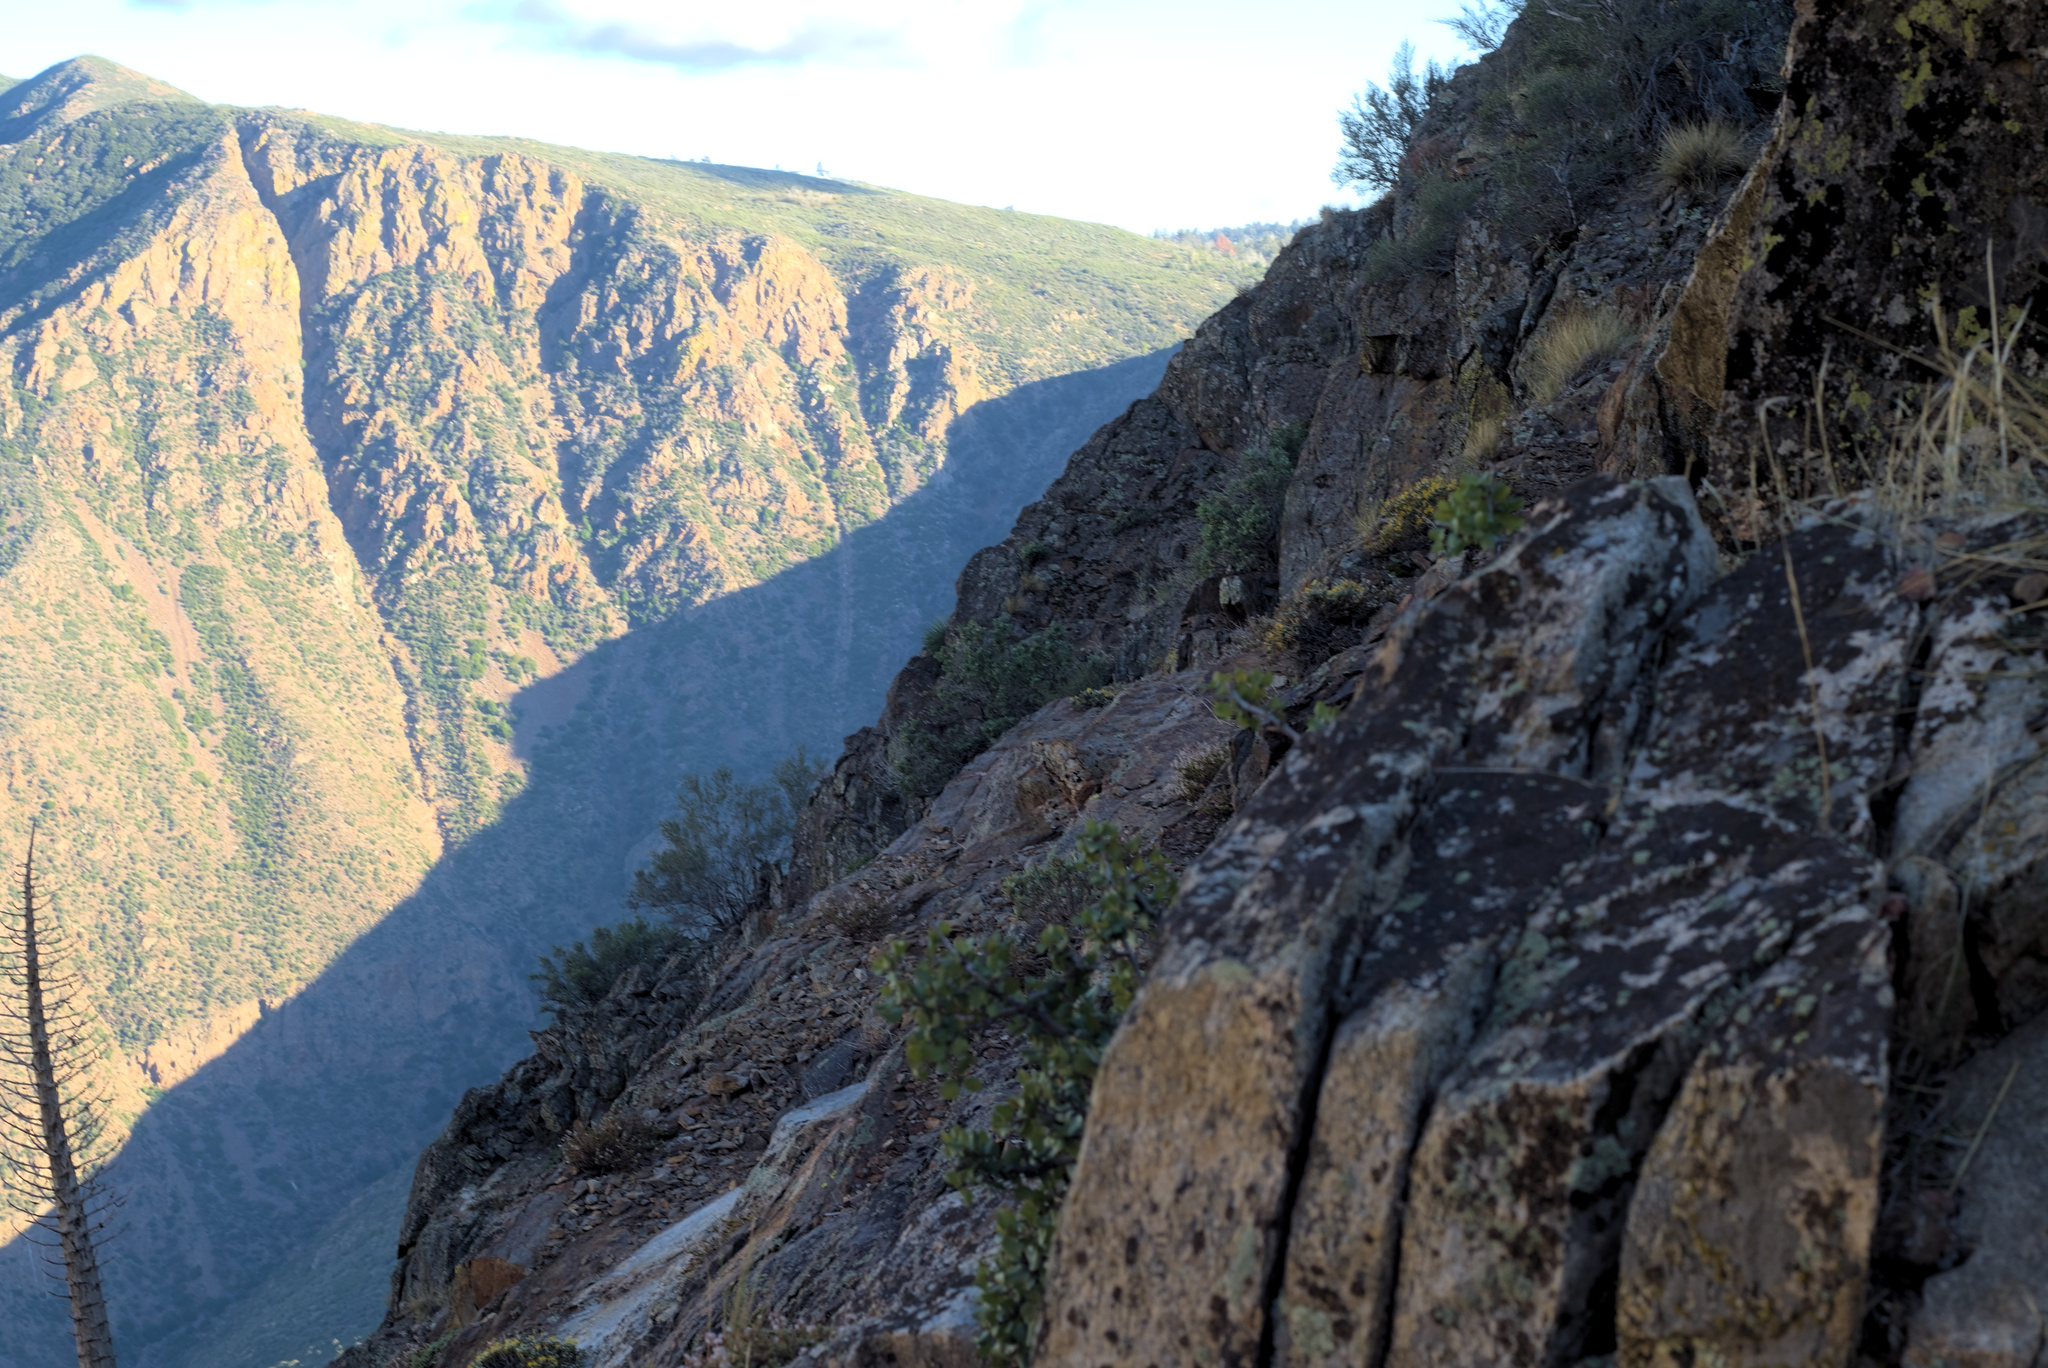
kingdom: Plantae
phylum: Tracheophyta
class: Magnoliopsida
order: Asterales
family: Asteraceae
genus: Ericameria
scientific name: Ericameria cuneata
